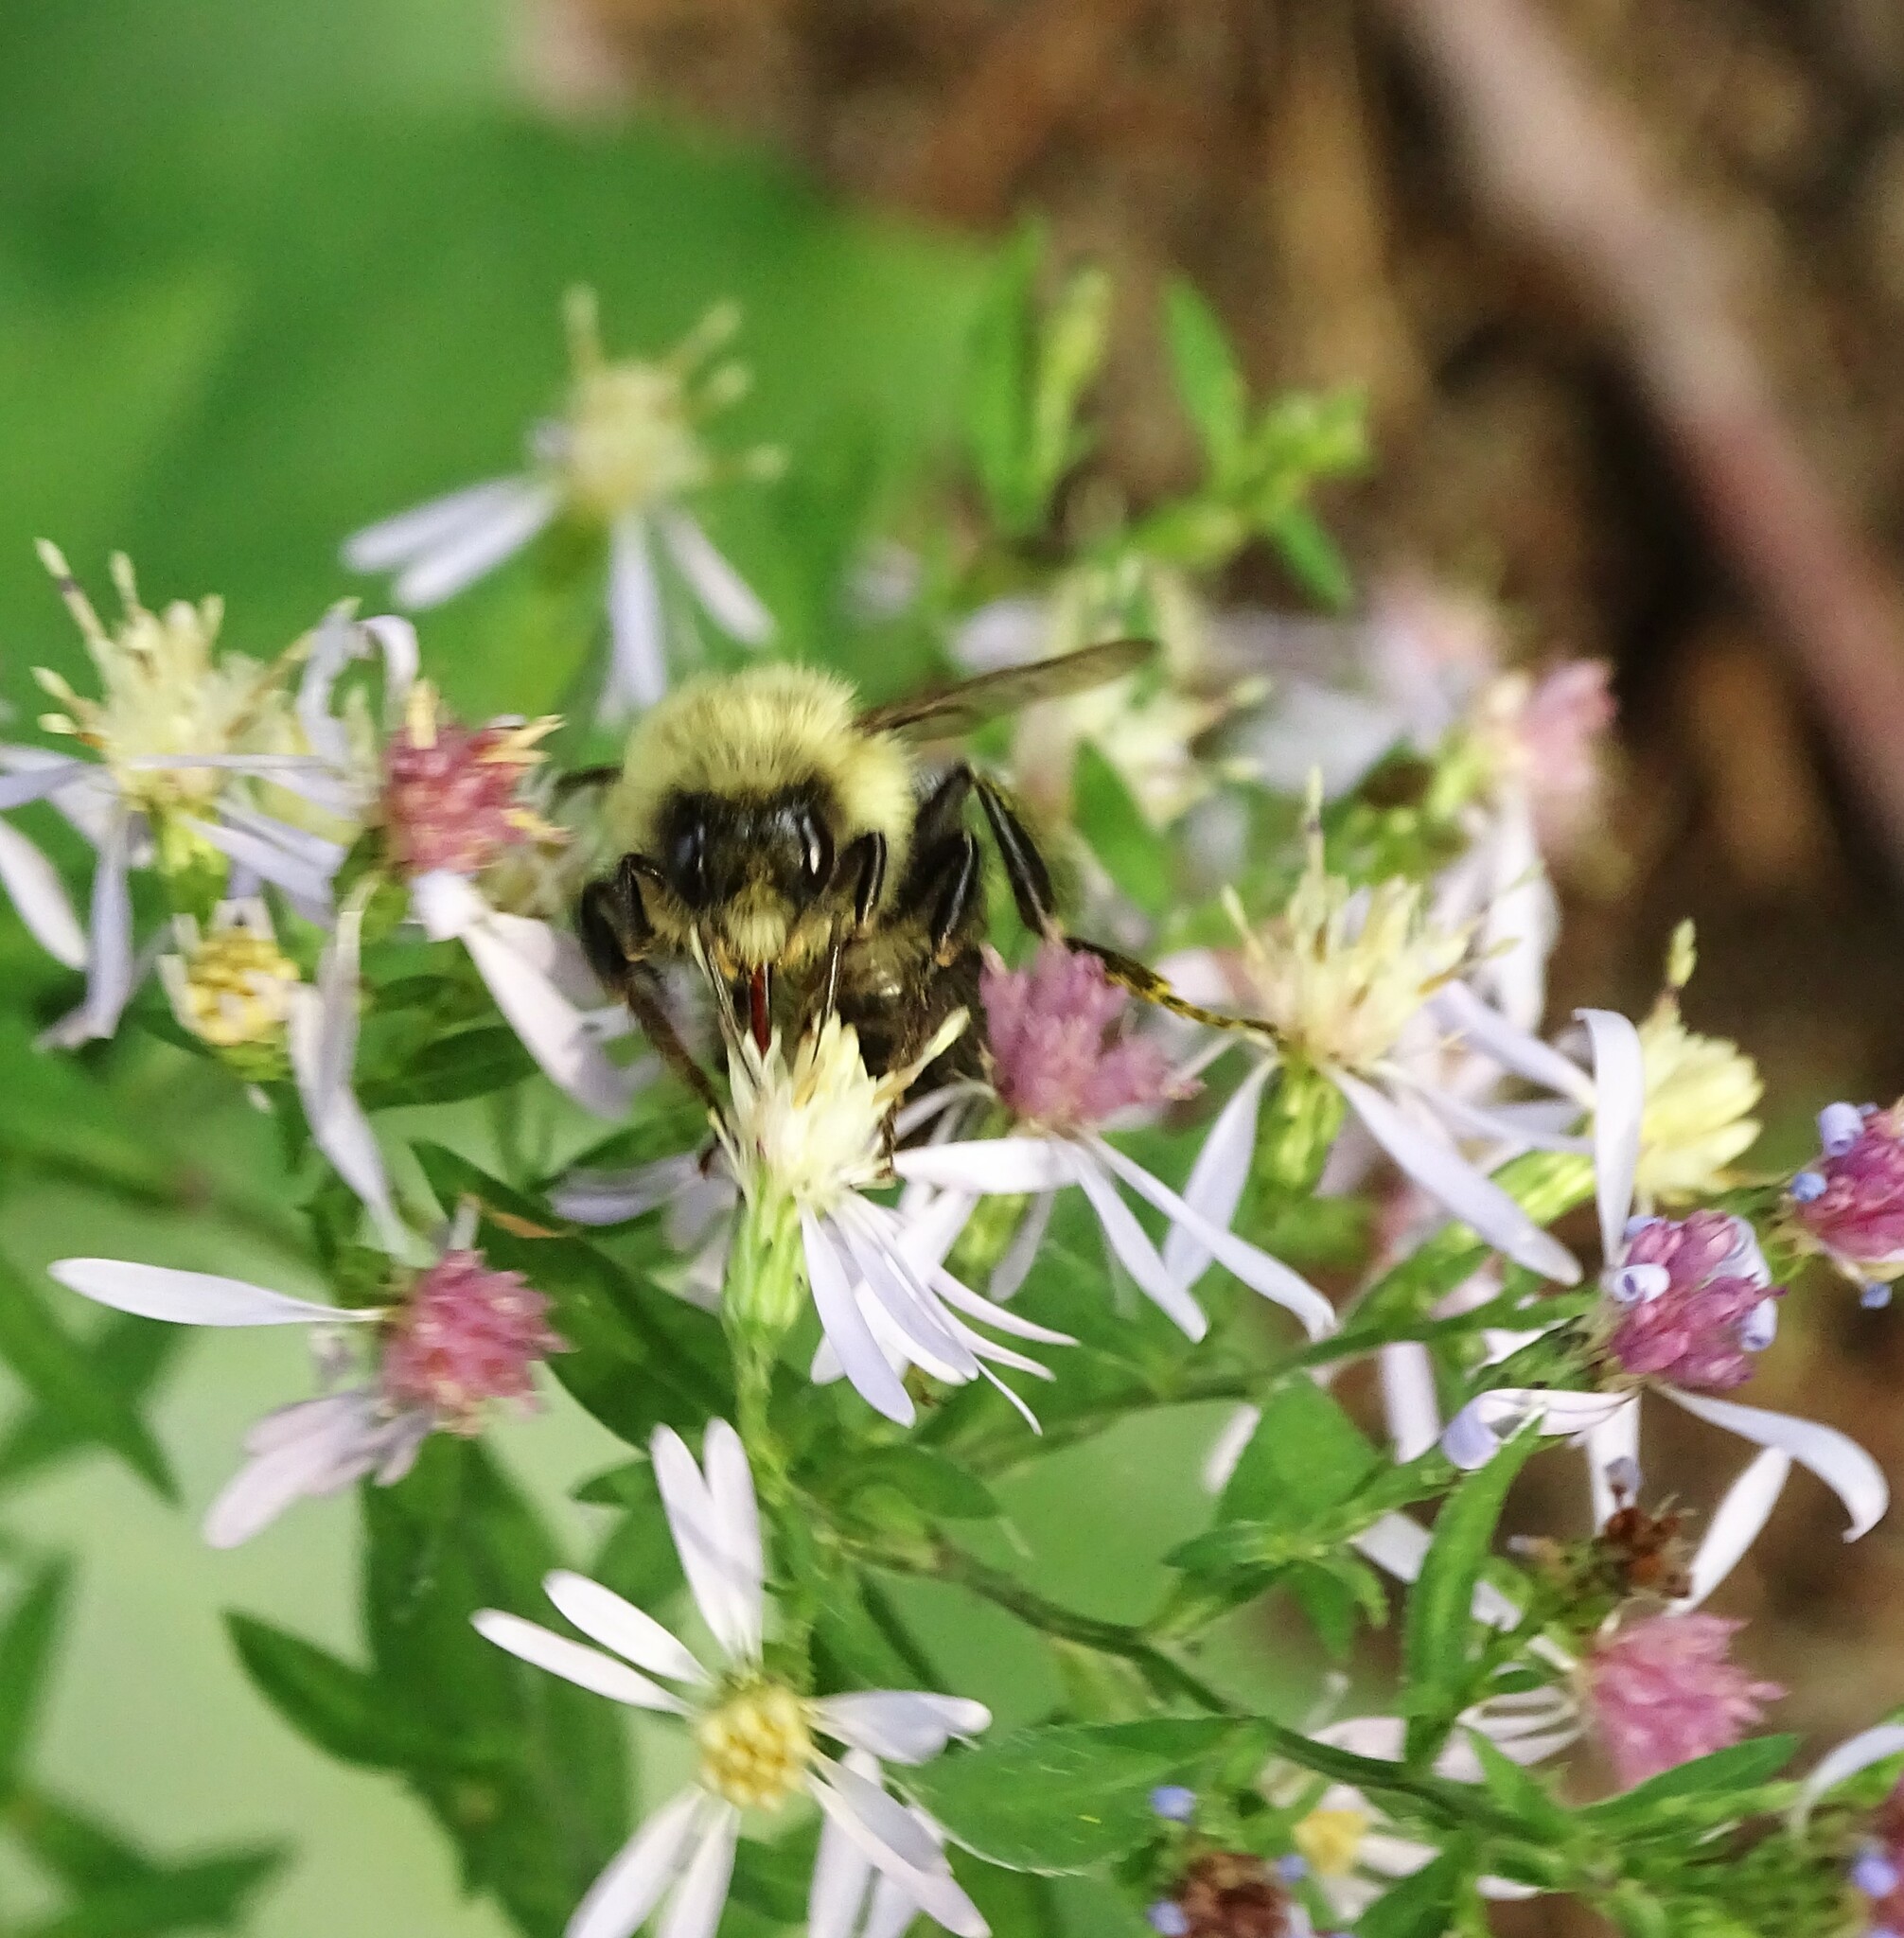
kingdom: Animalia
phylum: Arthropoda
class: Insecta
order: Hymenoptera
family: Apidae
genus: Bombus
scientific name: Bombus impatiens
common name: Common eastern bumble bee
